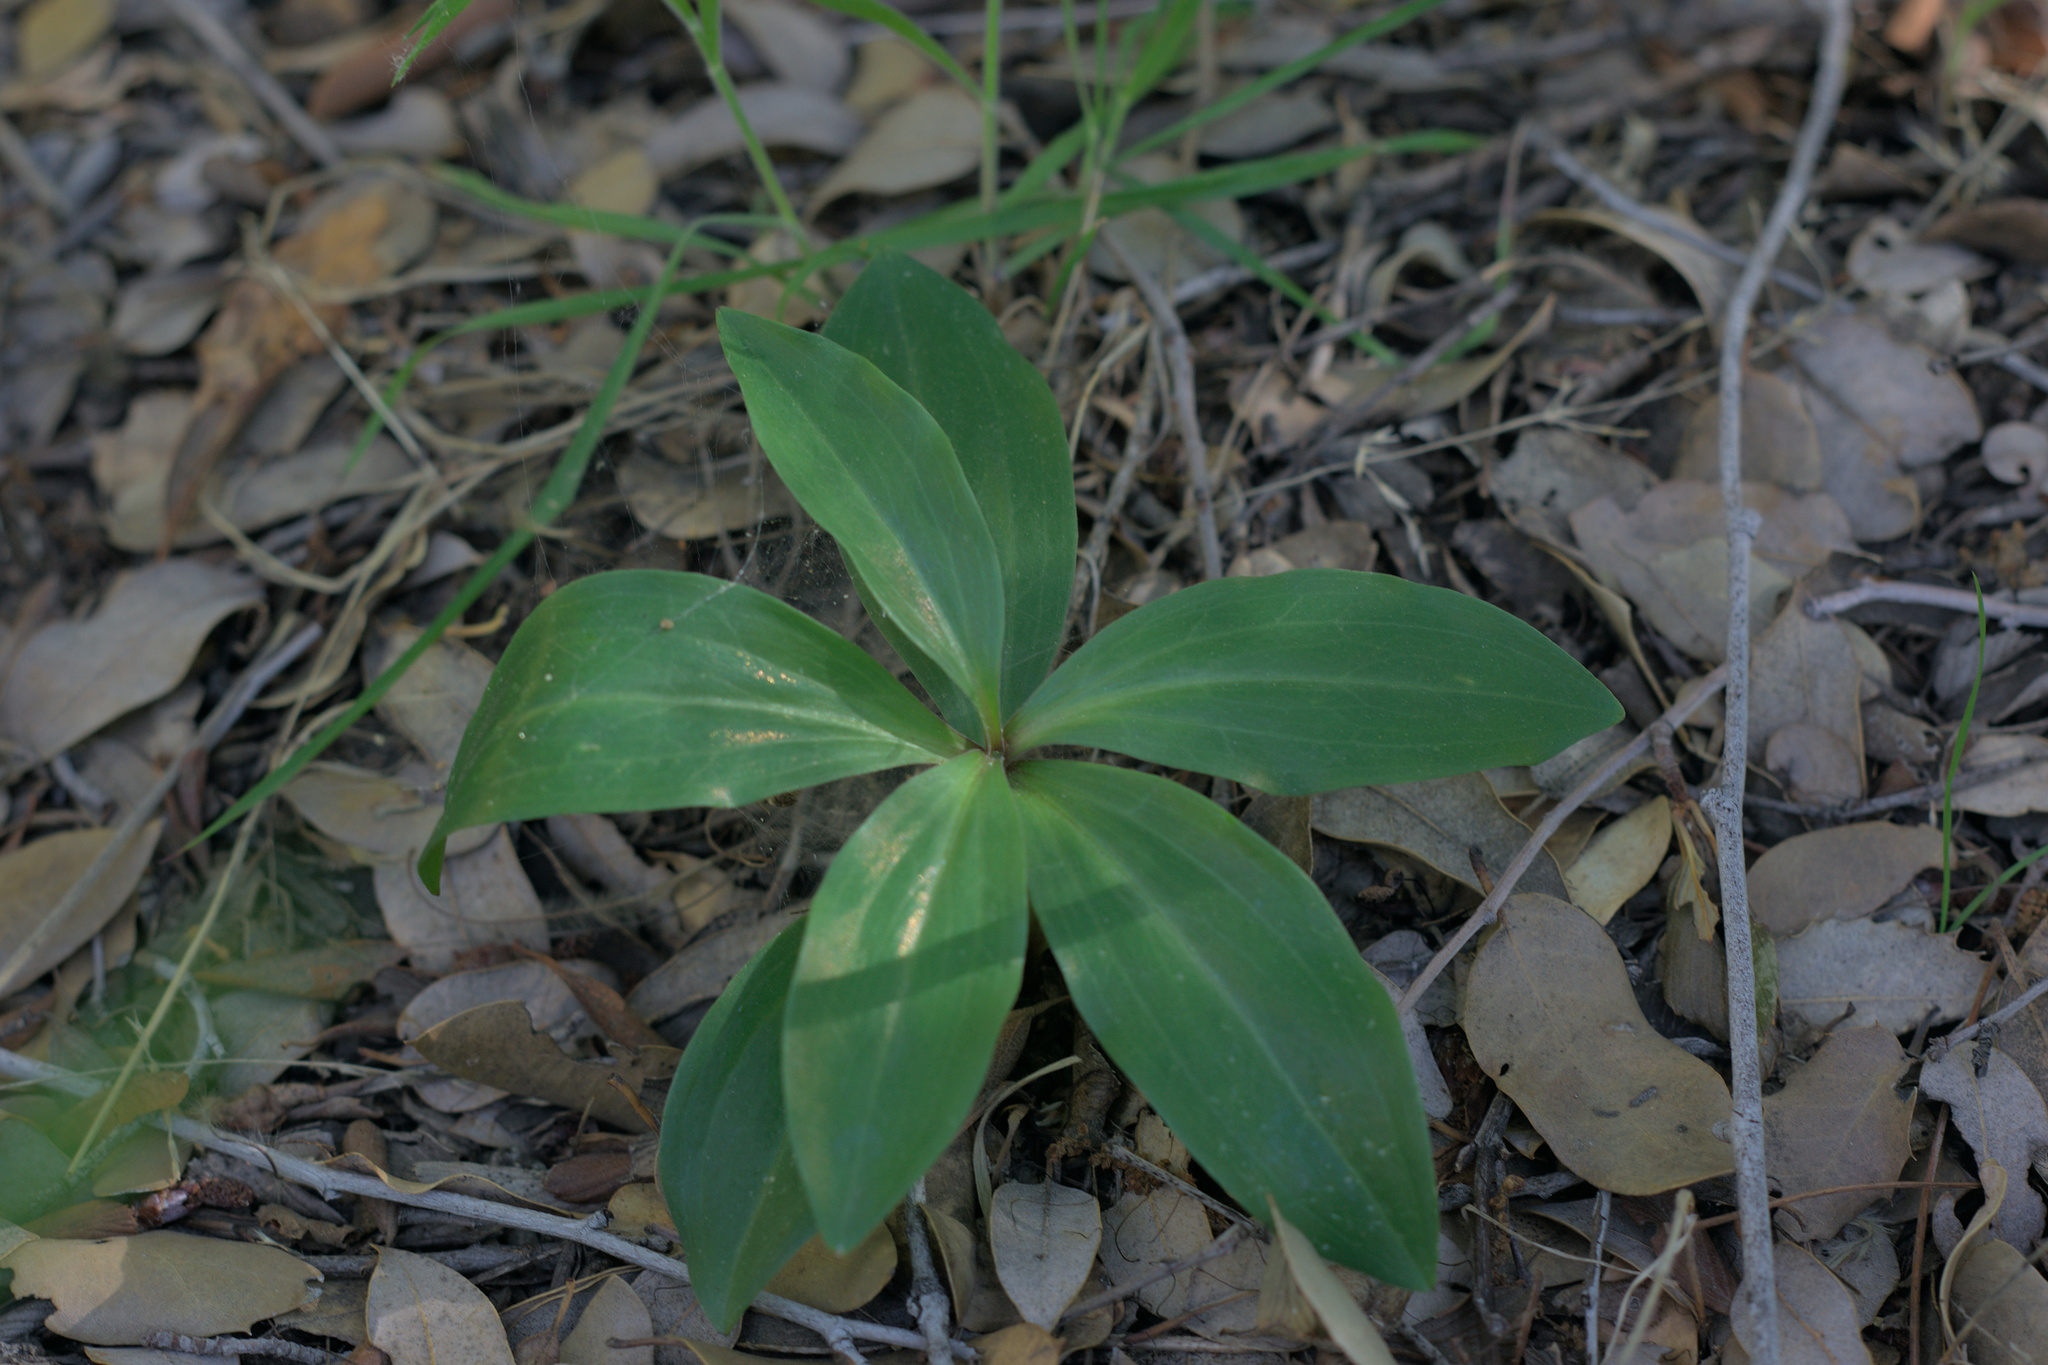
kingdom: Plantae
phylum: Tracheophyta
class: Liliopsida
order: Liliales
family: Liliaceae
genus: Lilium
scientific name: Lilium humboldtii
